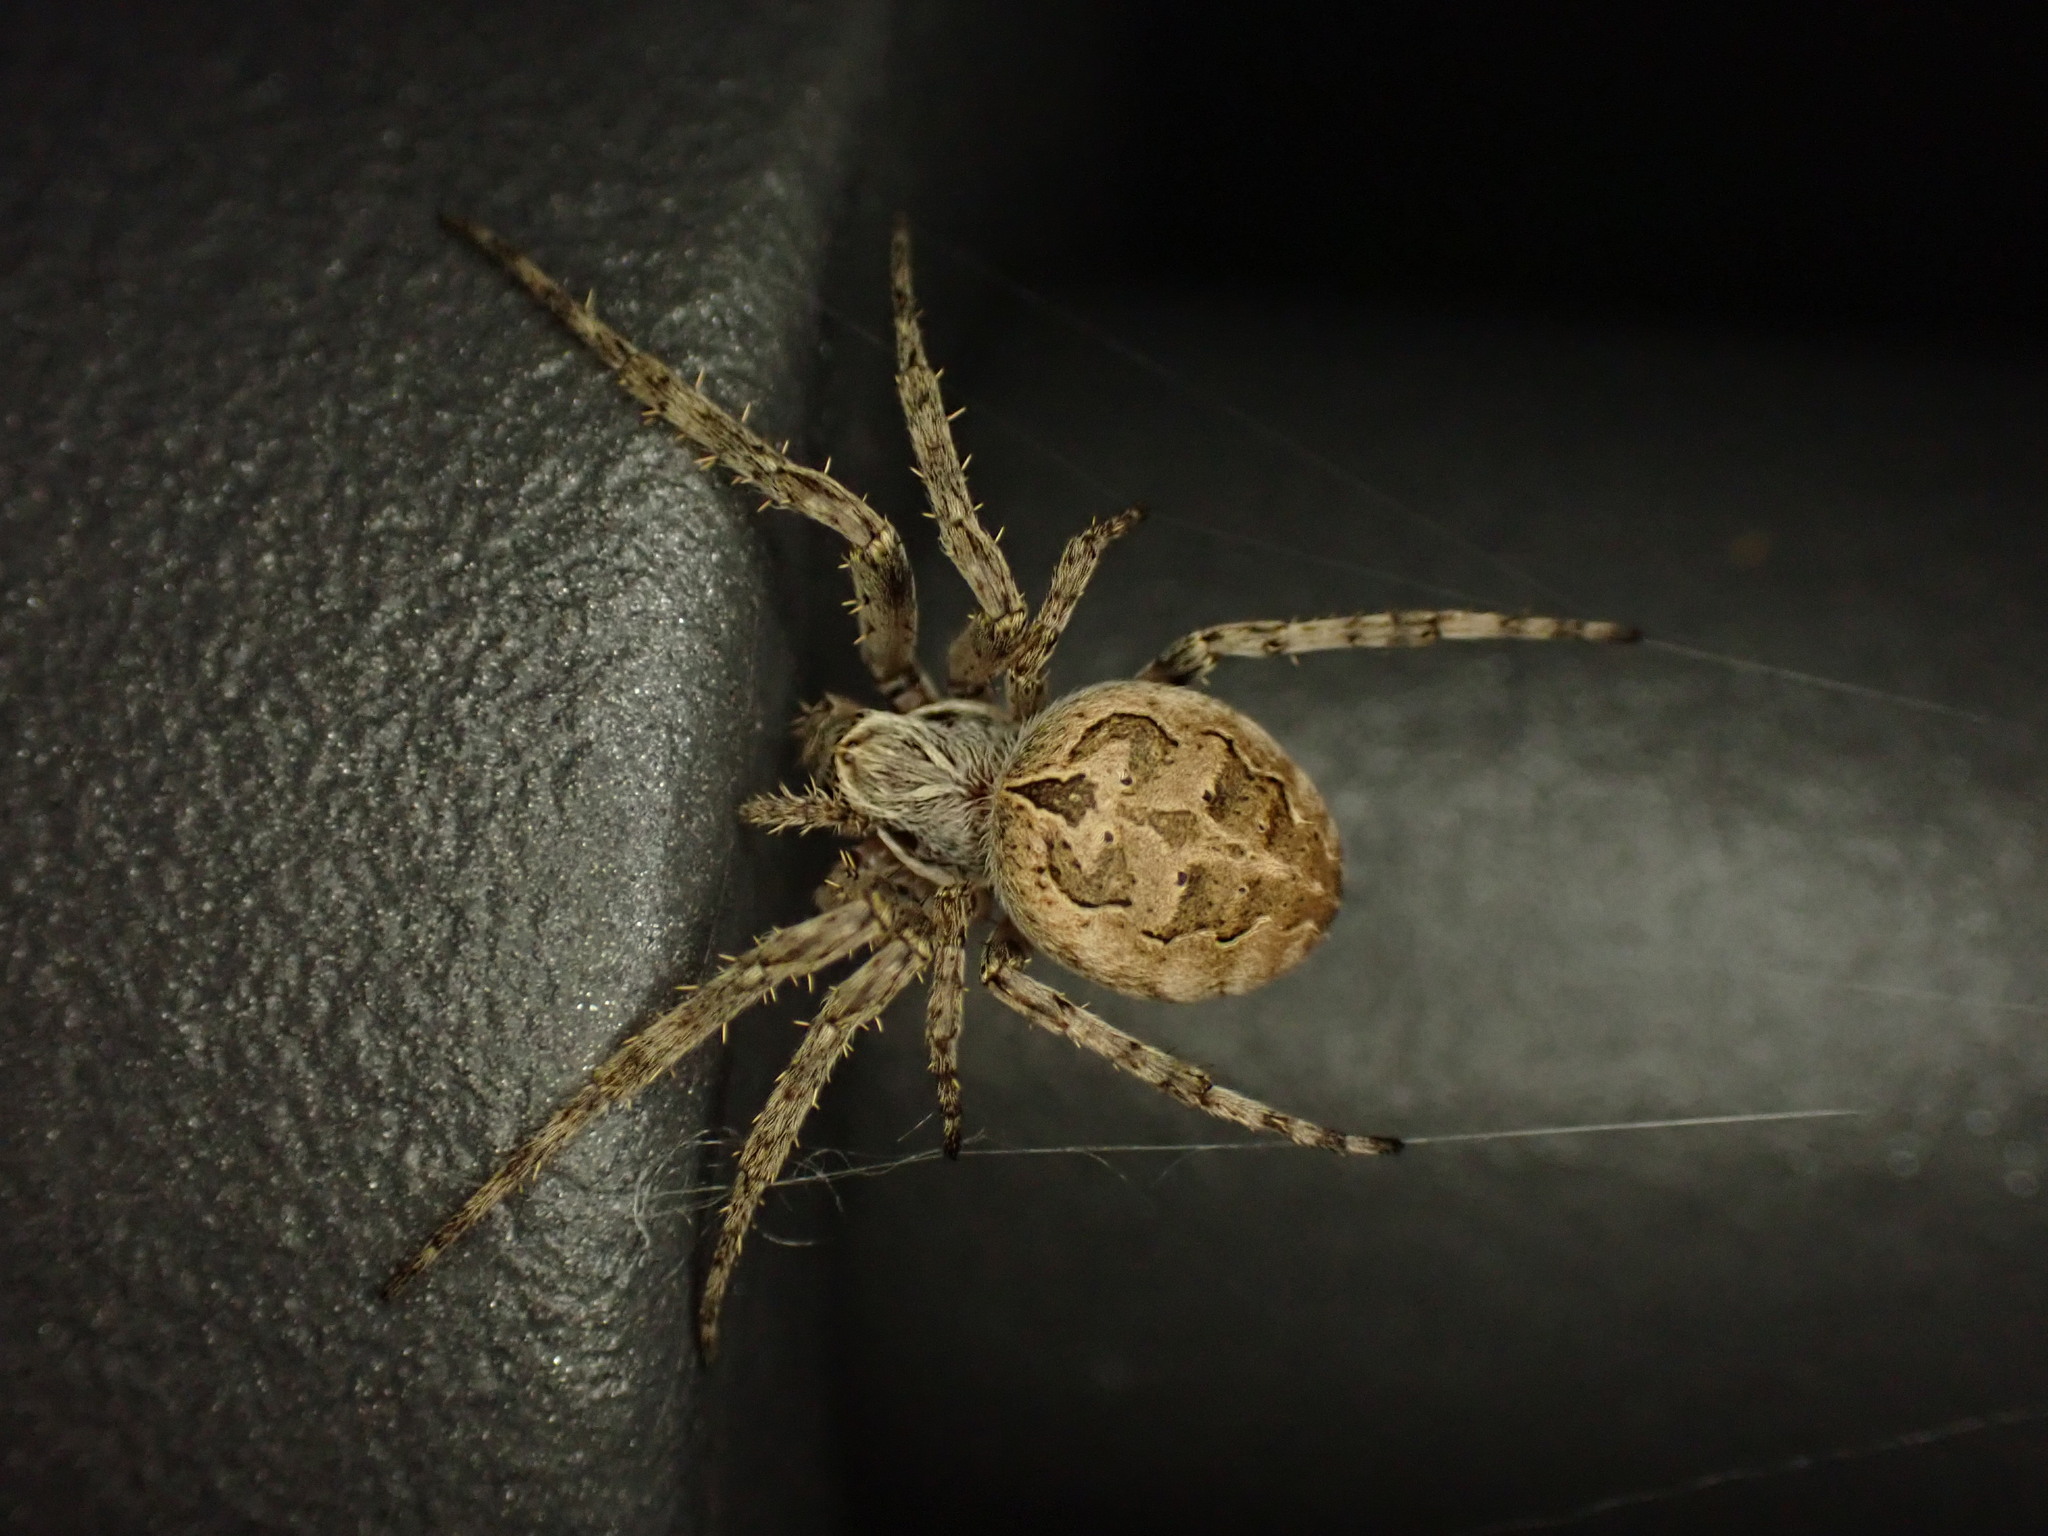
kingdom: Animalia
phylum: Arthropoda
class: Arachnida
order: Araneae
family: Araneidae
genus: Larinioides
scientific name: Larinioides sclopetarius
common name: Bridge orbweaver
